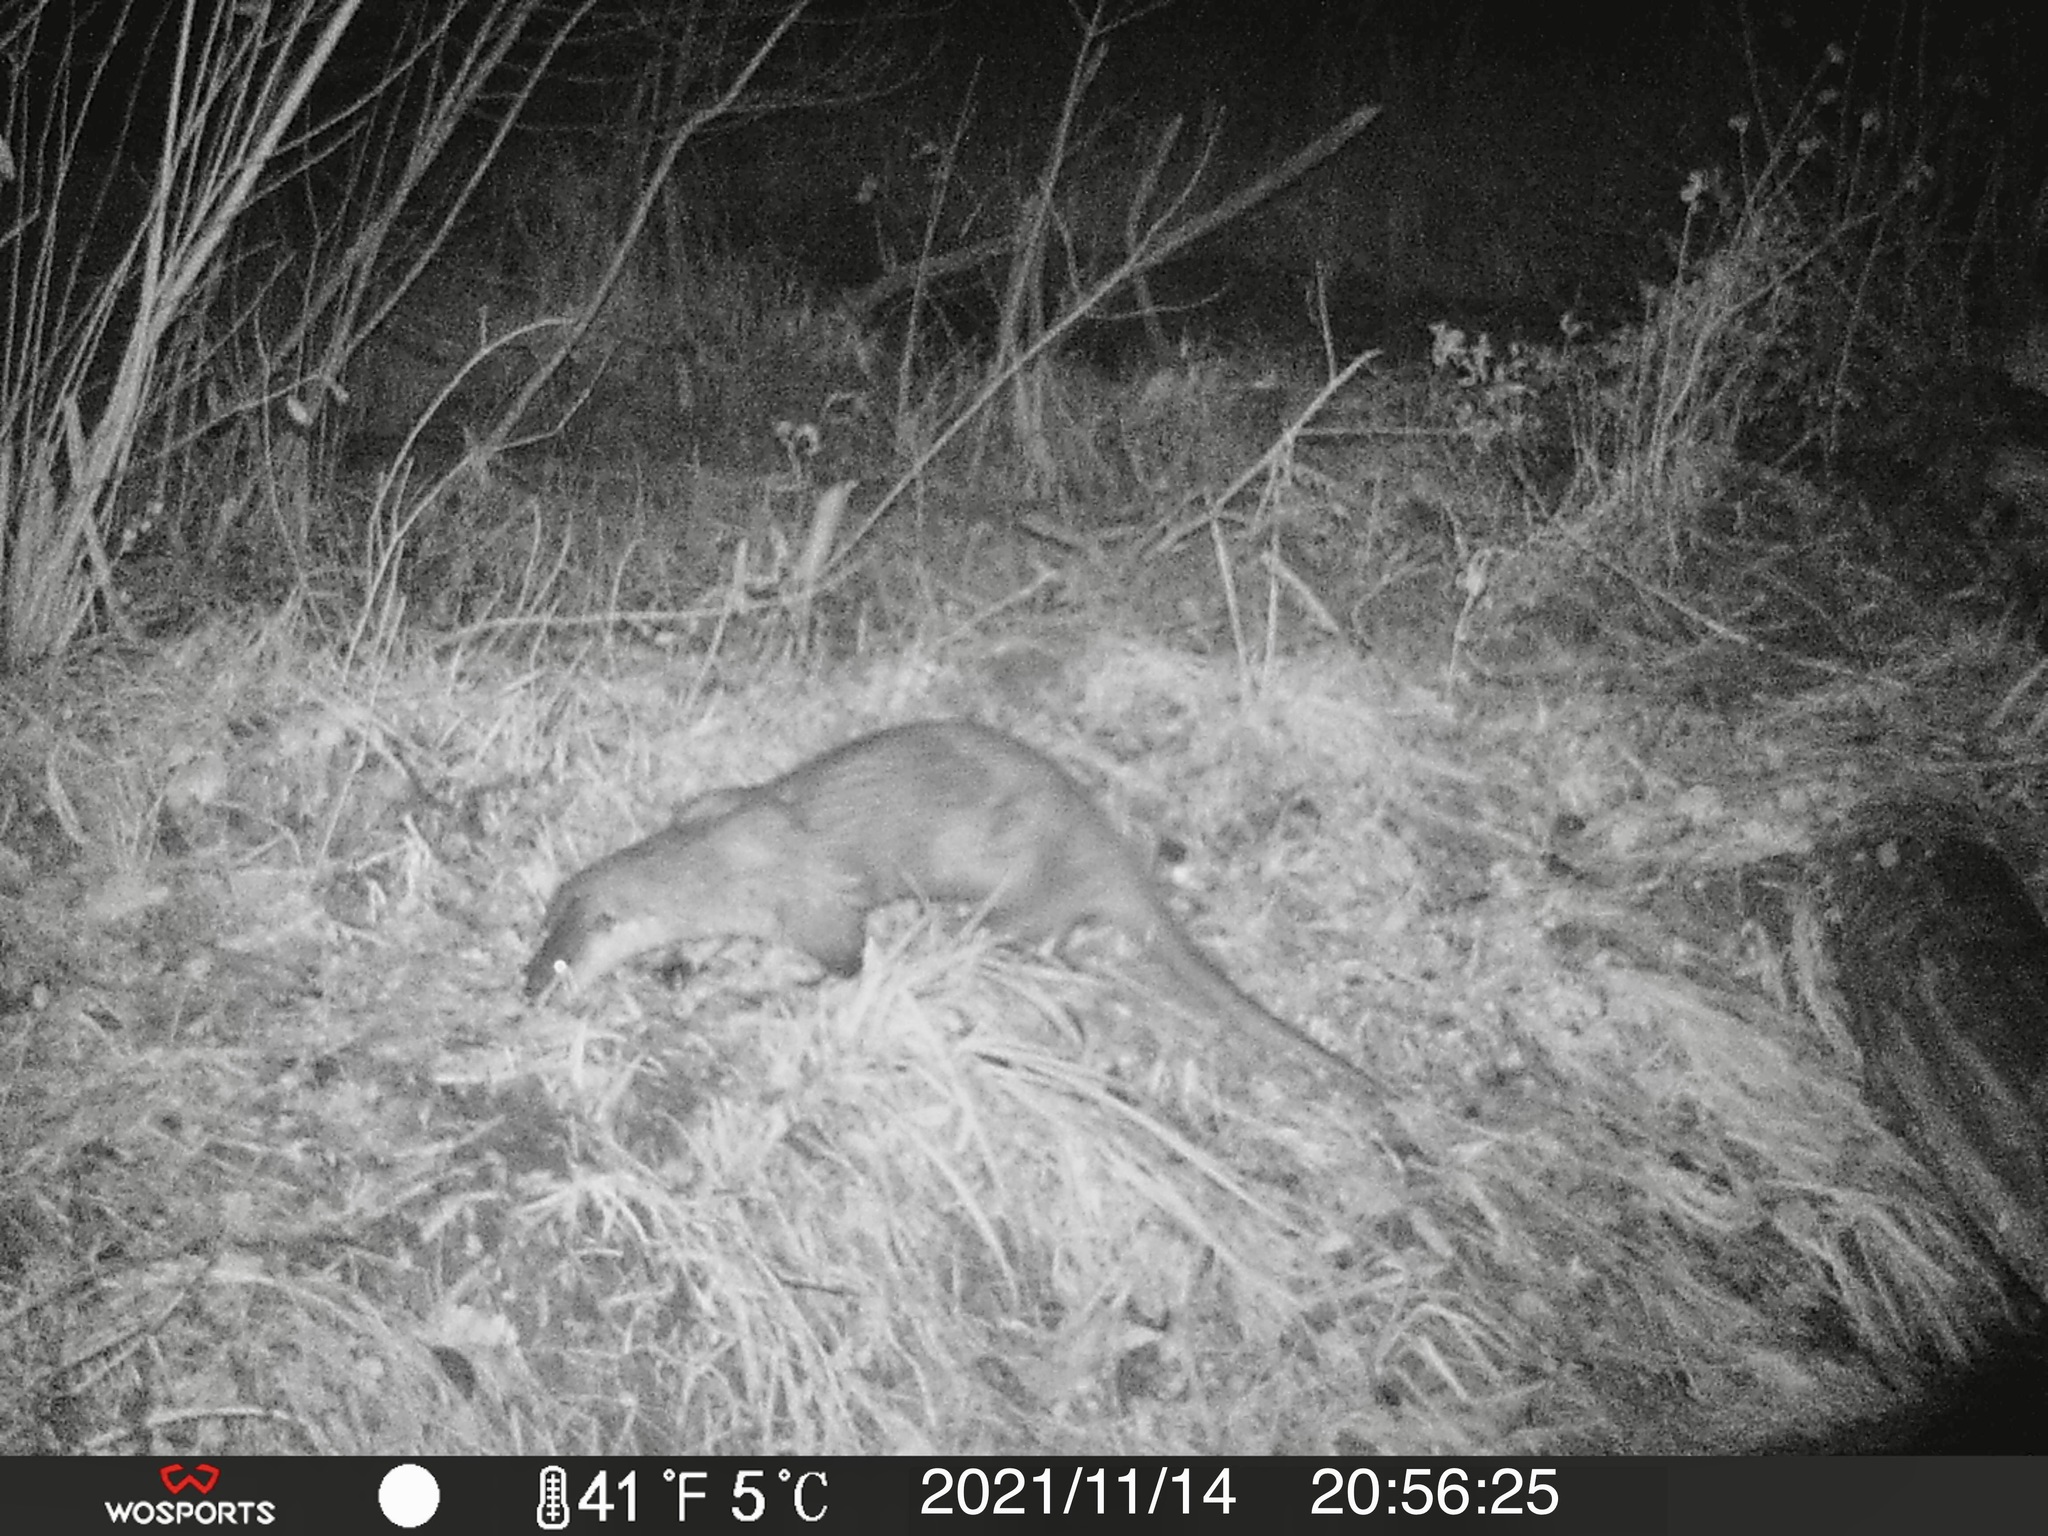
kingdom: Animalia
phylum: Chordata
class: Mammalia
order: Carnivora
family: Mustelidae
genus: Lontra
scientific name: Lontra canadensis
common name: North american river otter
